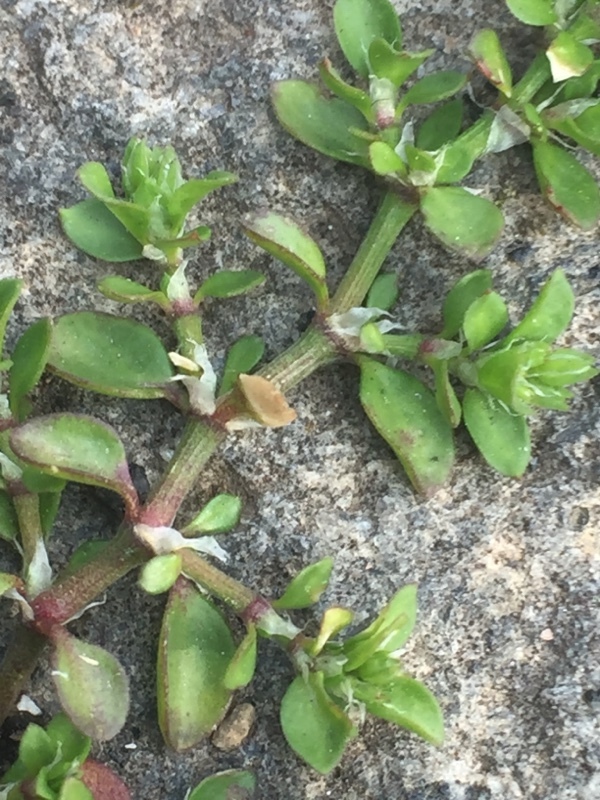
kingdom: Plantae
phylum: Tracheophyta
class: Magnoliopsida
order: Caryophyllales
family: Caryophyllaceae
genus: Polycarpon
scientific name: Polycarpon tetraphyllum
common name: Four-leaved all-seed
